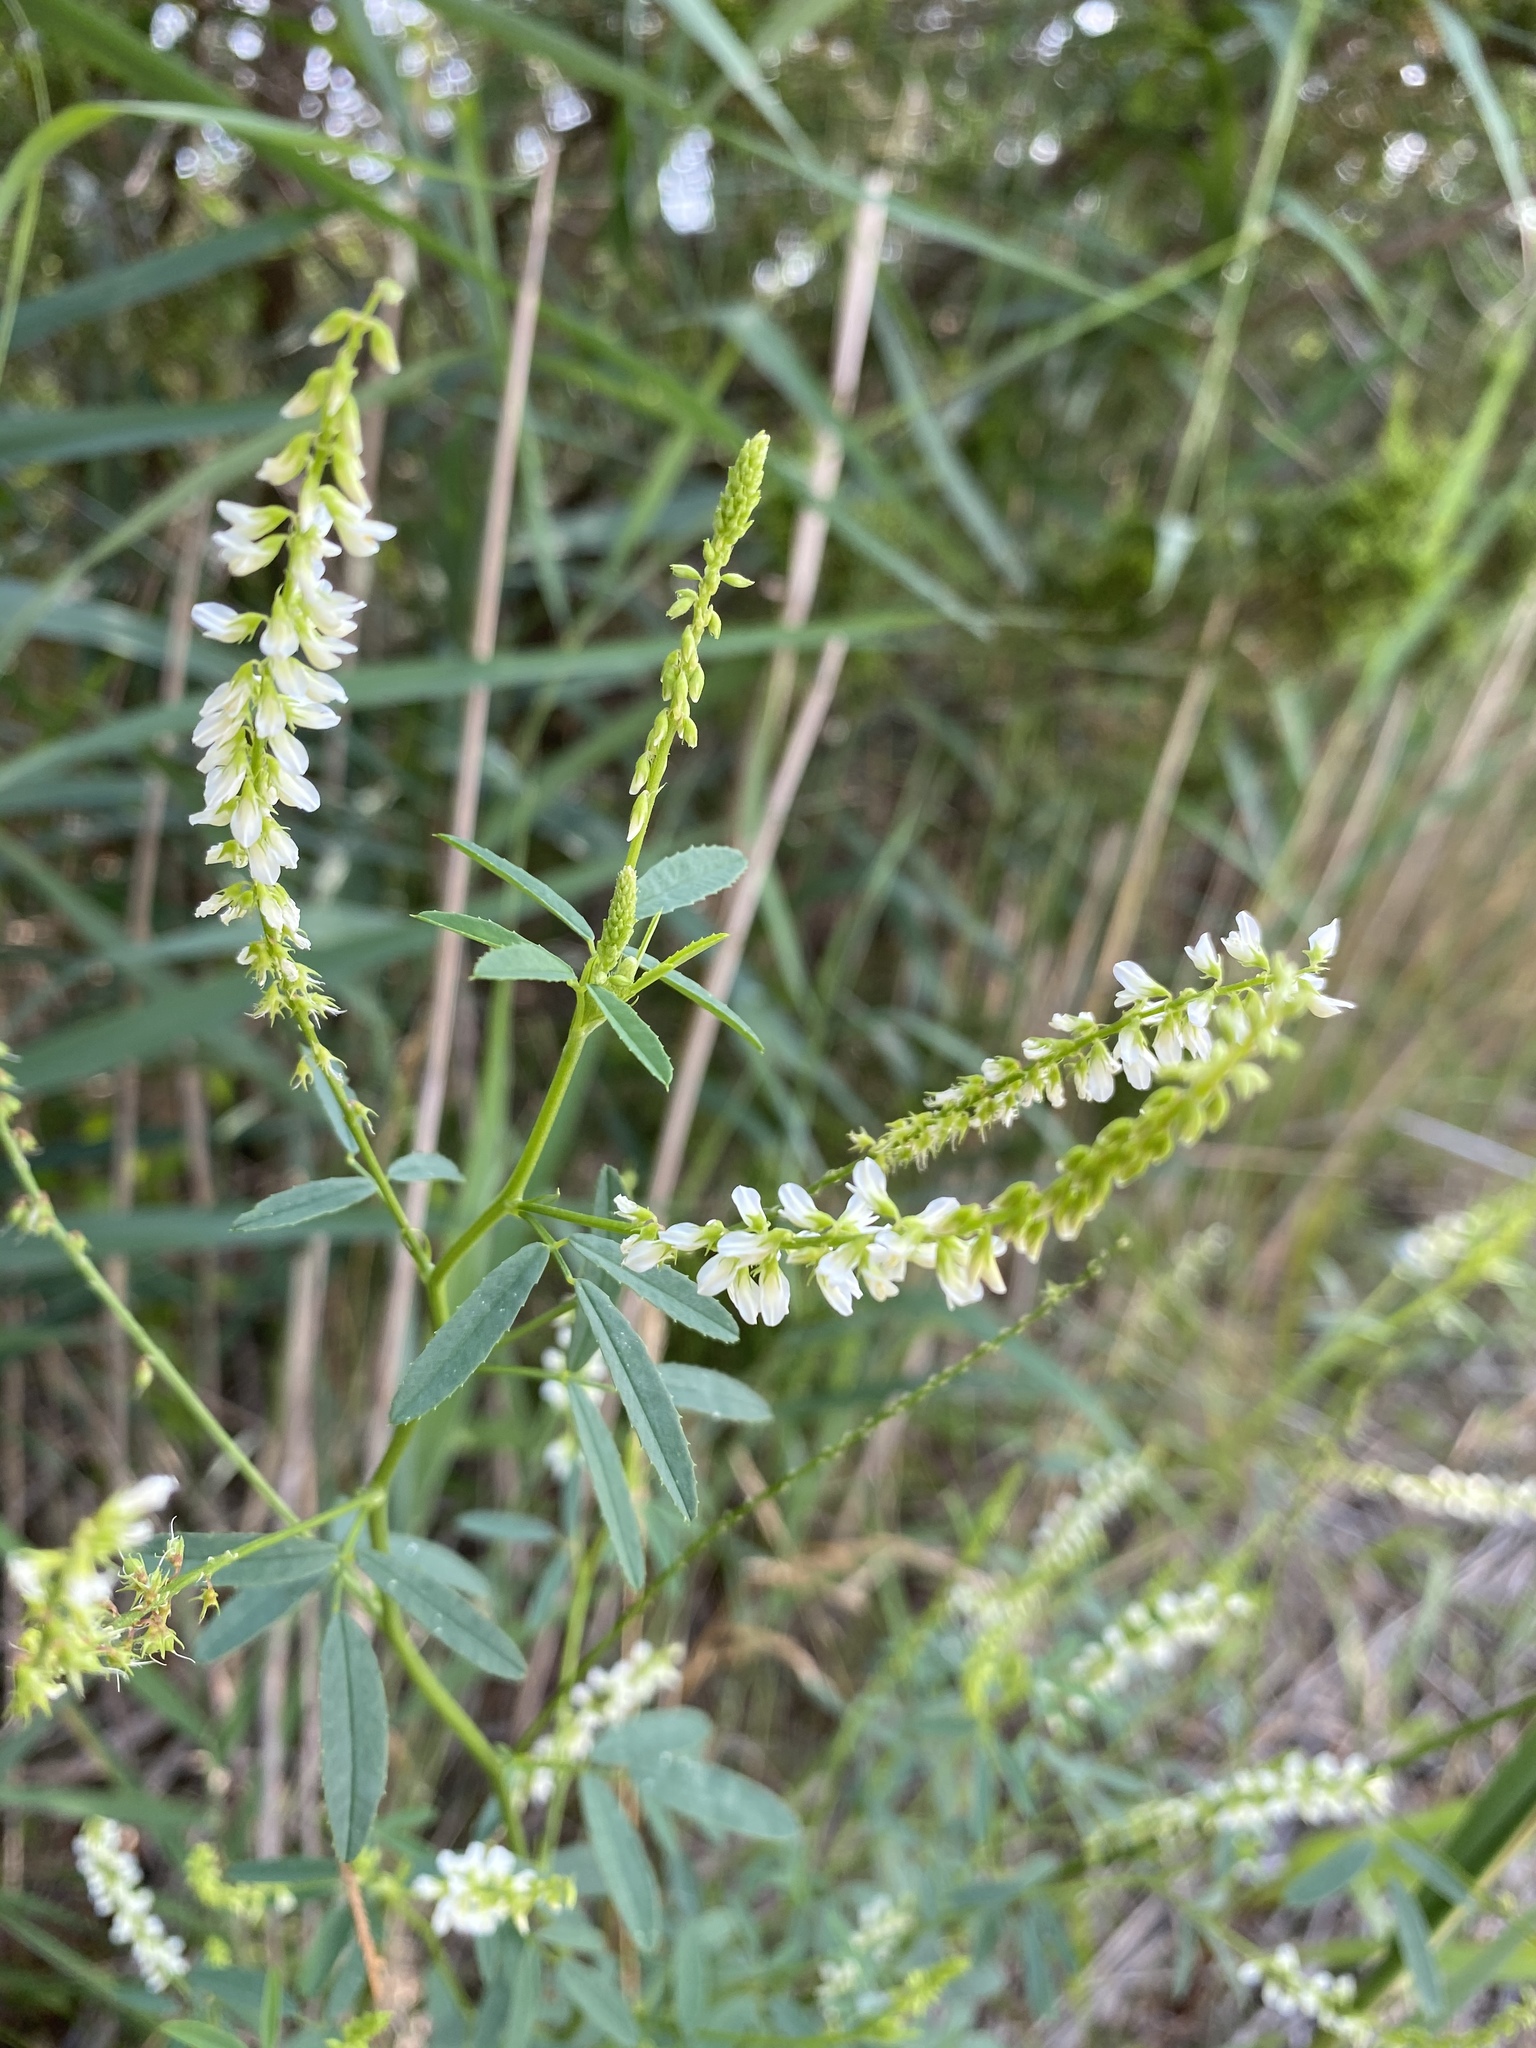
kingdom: Plantae
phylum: Tracheophyta
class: Magnoliopsida
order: Fabales
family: Fabaceae
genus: Melilotus
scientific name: Melilotus albus
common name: White melilot
